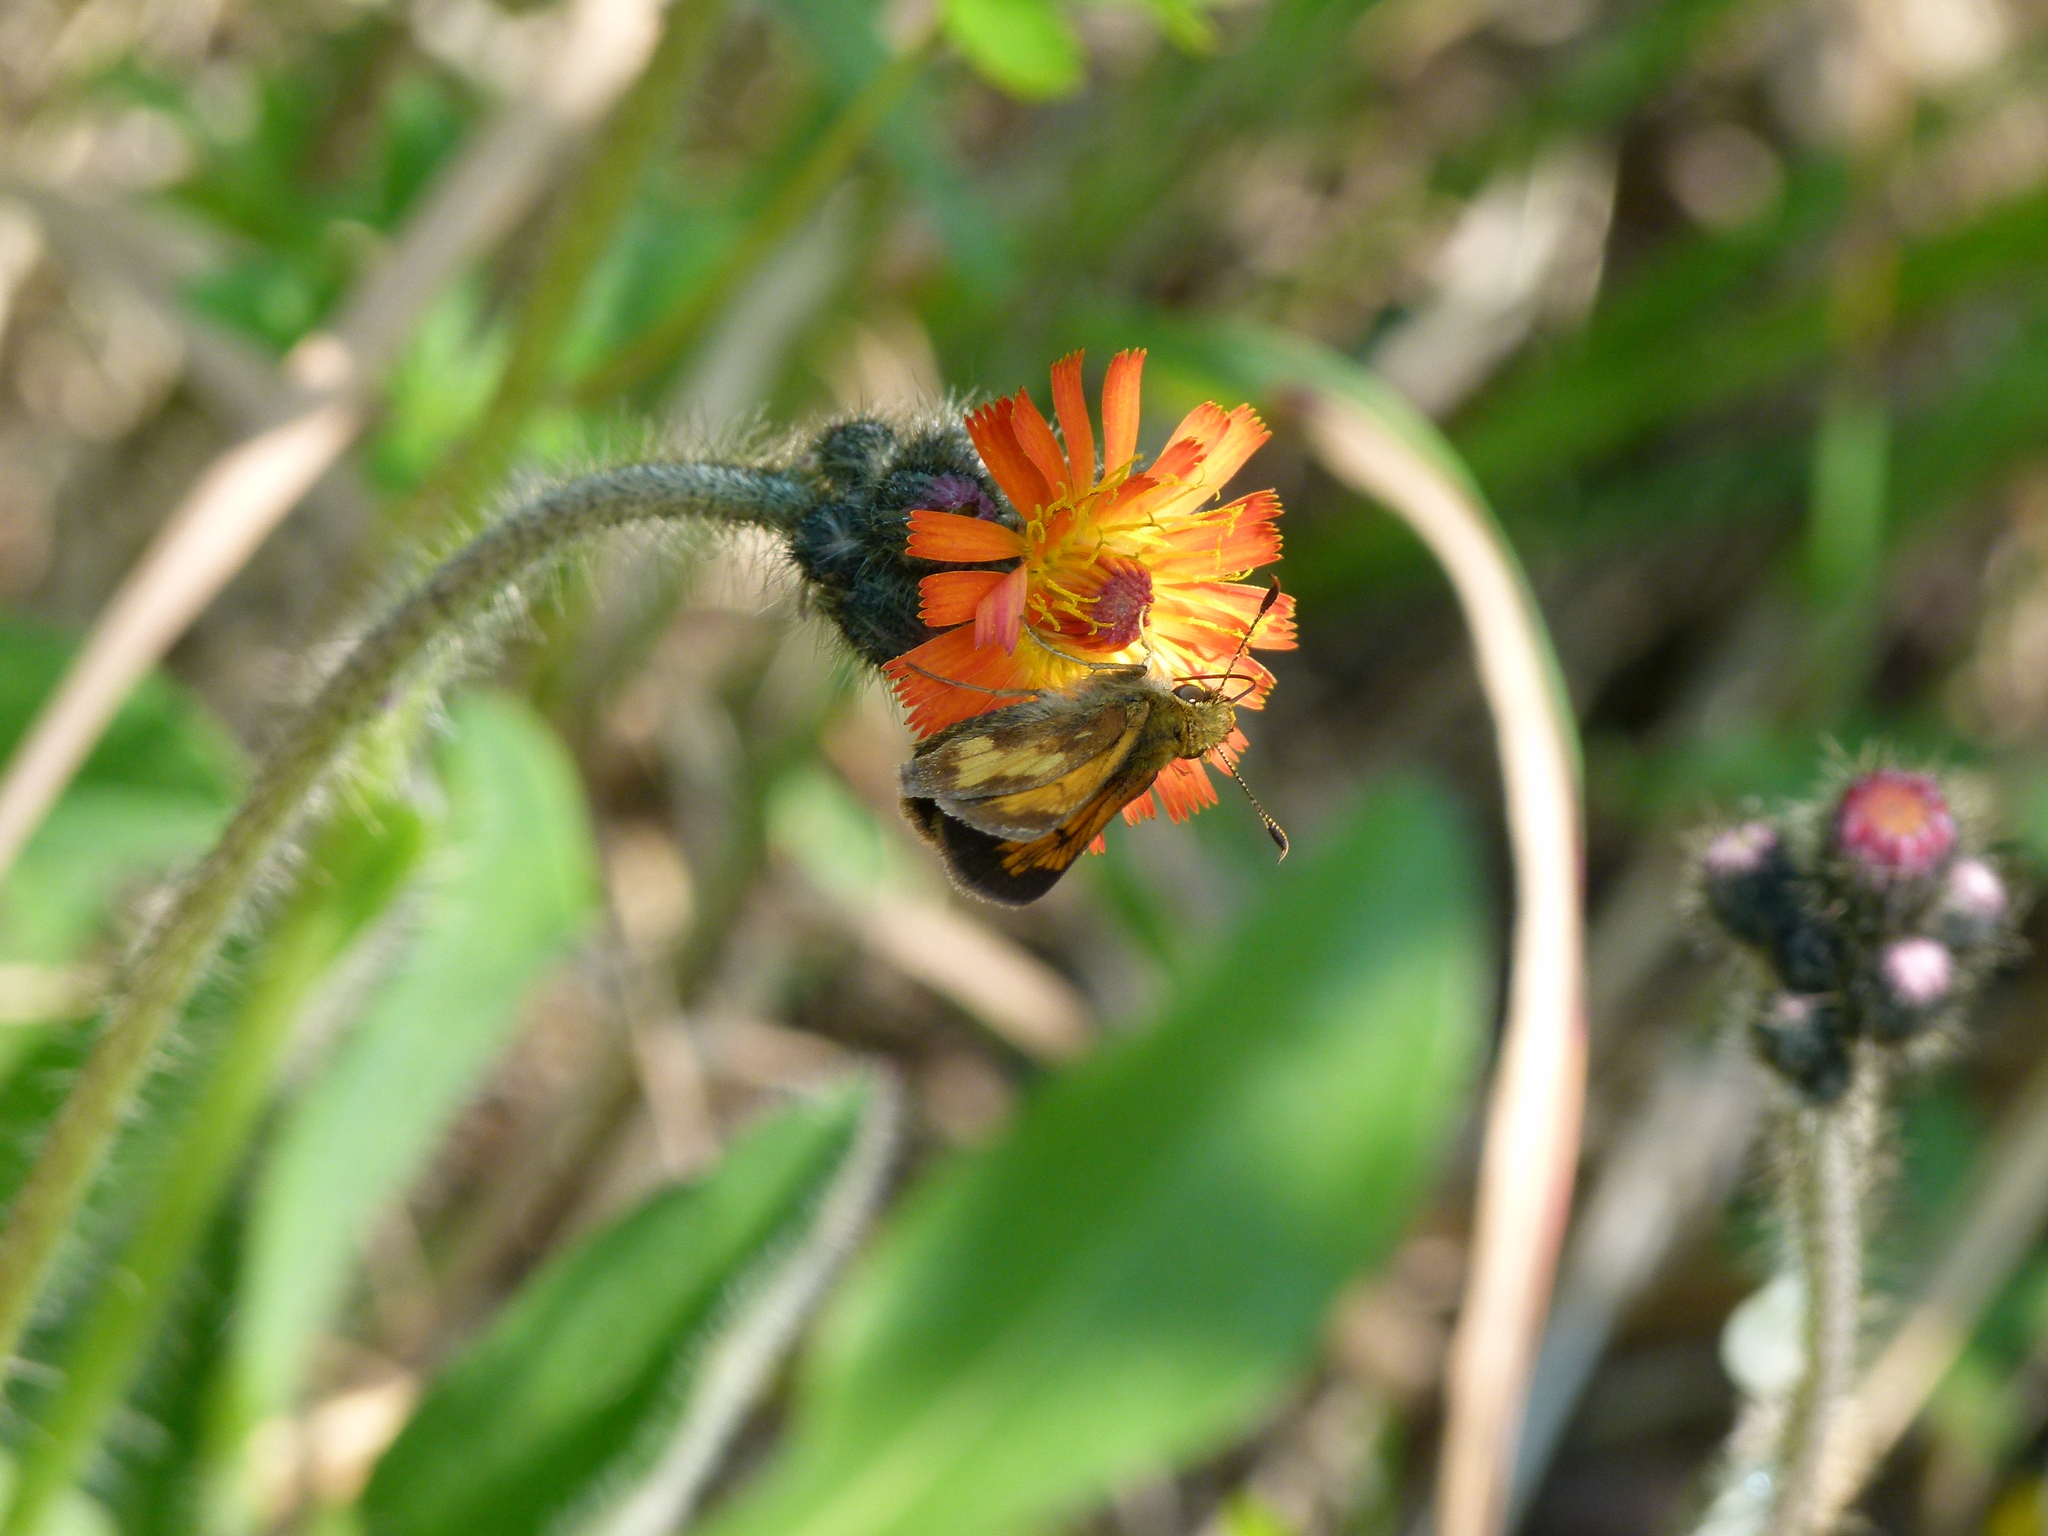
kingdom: Animalia
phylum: Arthropoda
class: Insecta
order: Lepidoptera
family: Hesperiidae
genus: Lon
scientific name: Lon hobomok
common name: Hobomok skipper
